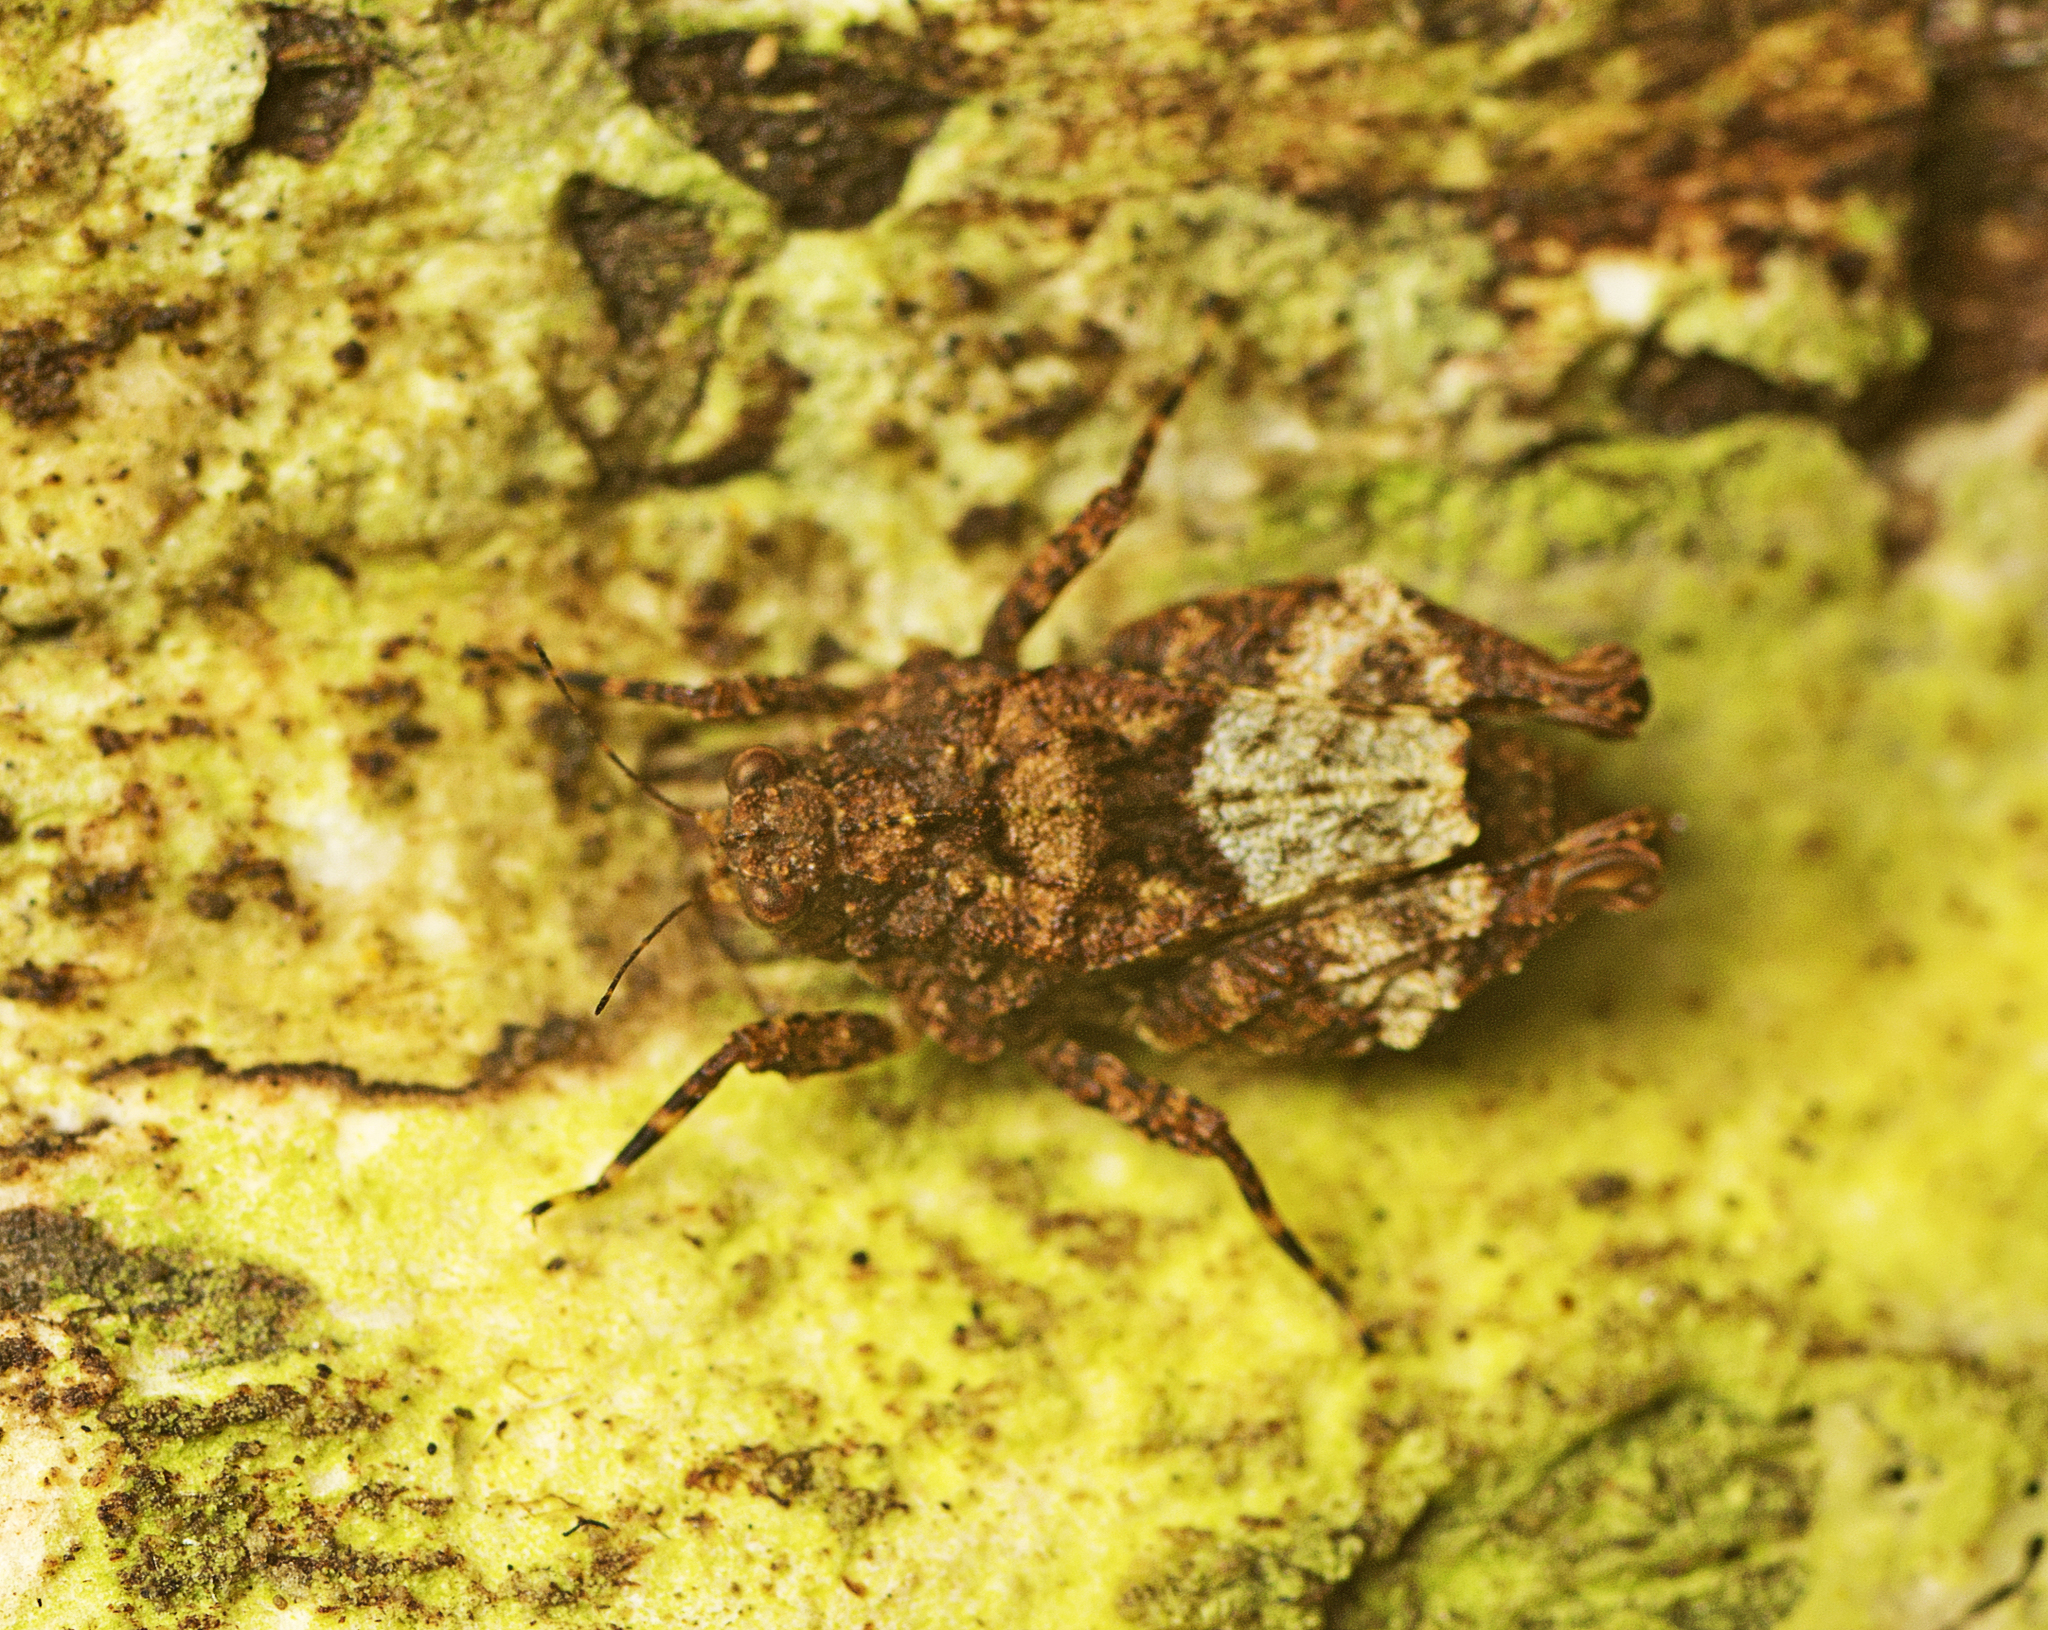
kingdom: Animalia
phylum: Arthropoda
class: Insecta
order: Orthoptera
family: Tetrigidae
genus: Tepperotettix
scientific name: Tepperotettix reliqua
